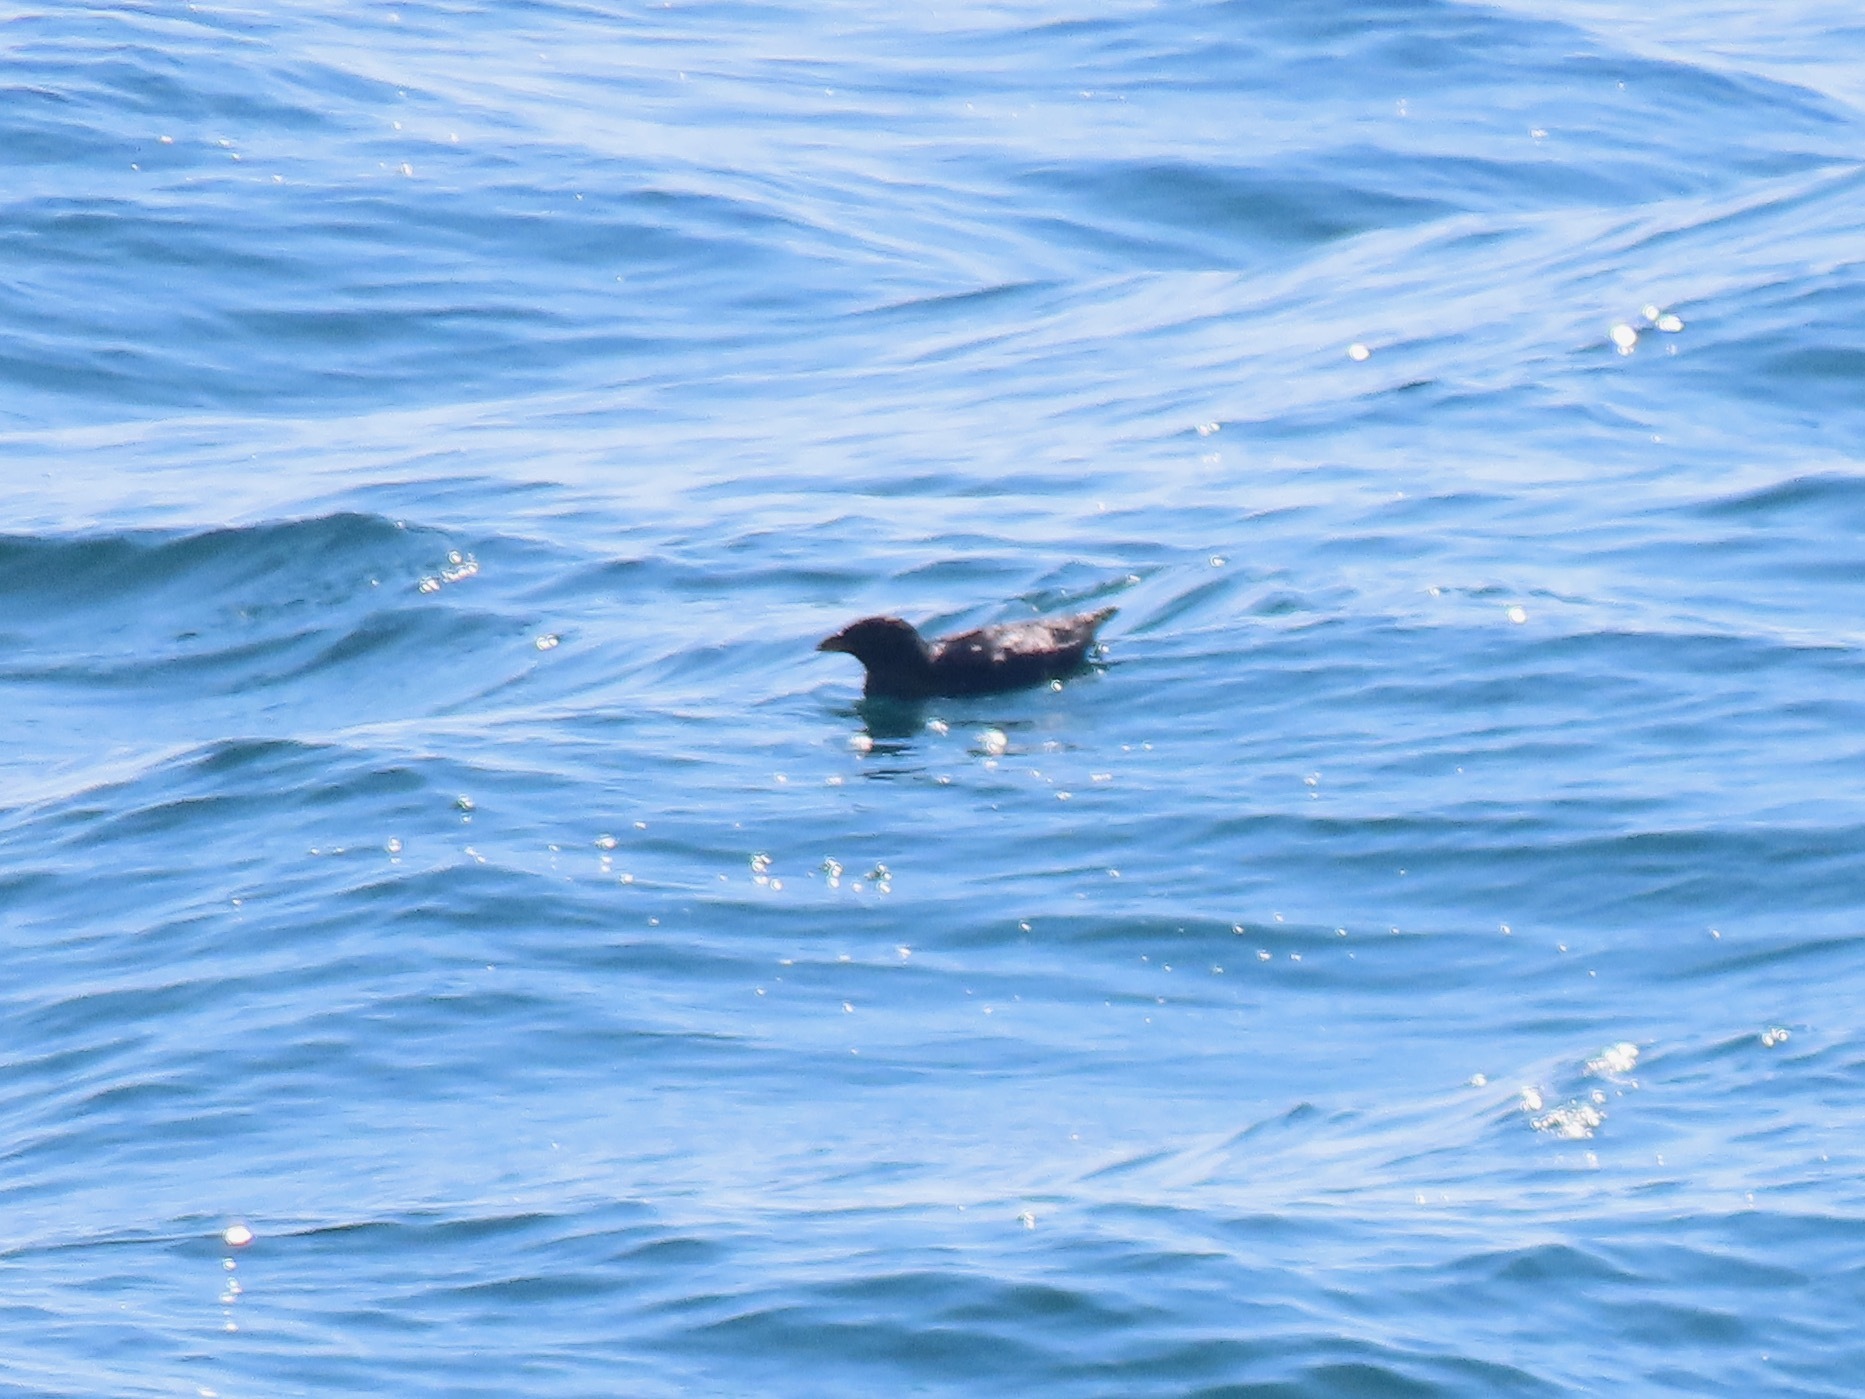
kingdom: Animalia
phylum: Chordata
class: Aves
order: Charadriiformes
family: Alcidae
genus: Cerorhinca
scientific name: Cerorhinca monocerata
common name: Rhinoceros auklet
